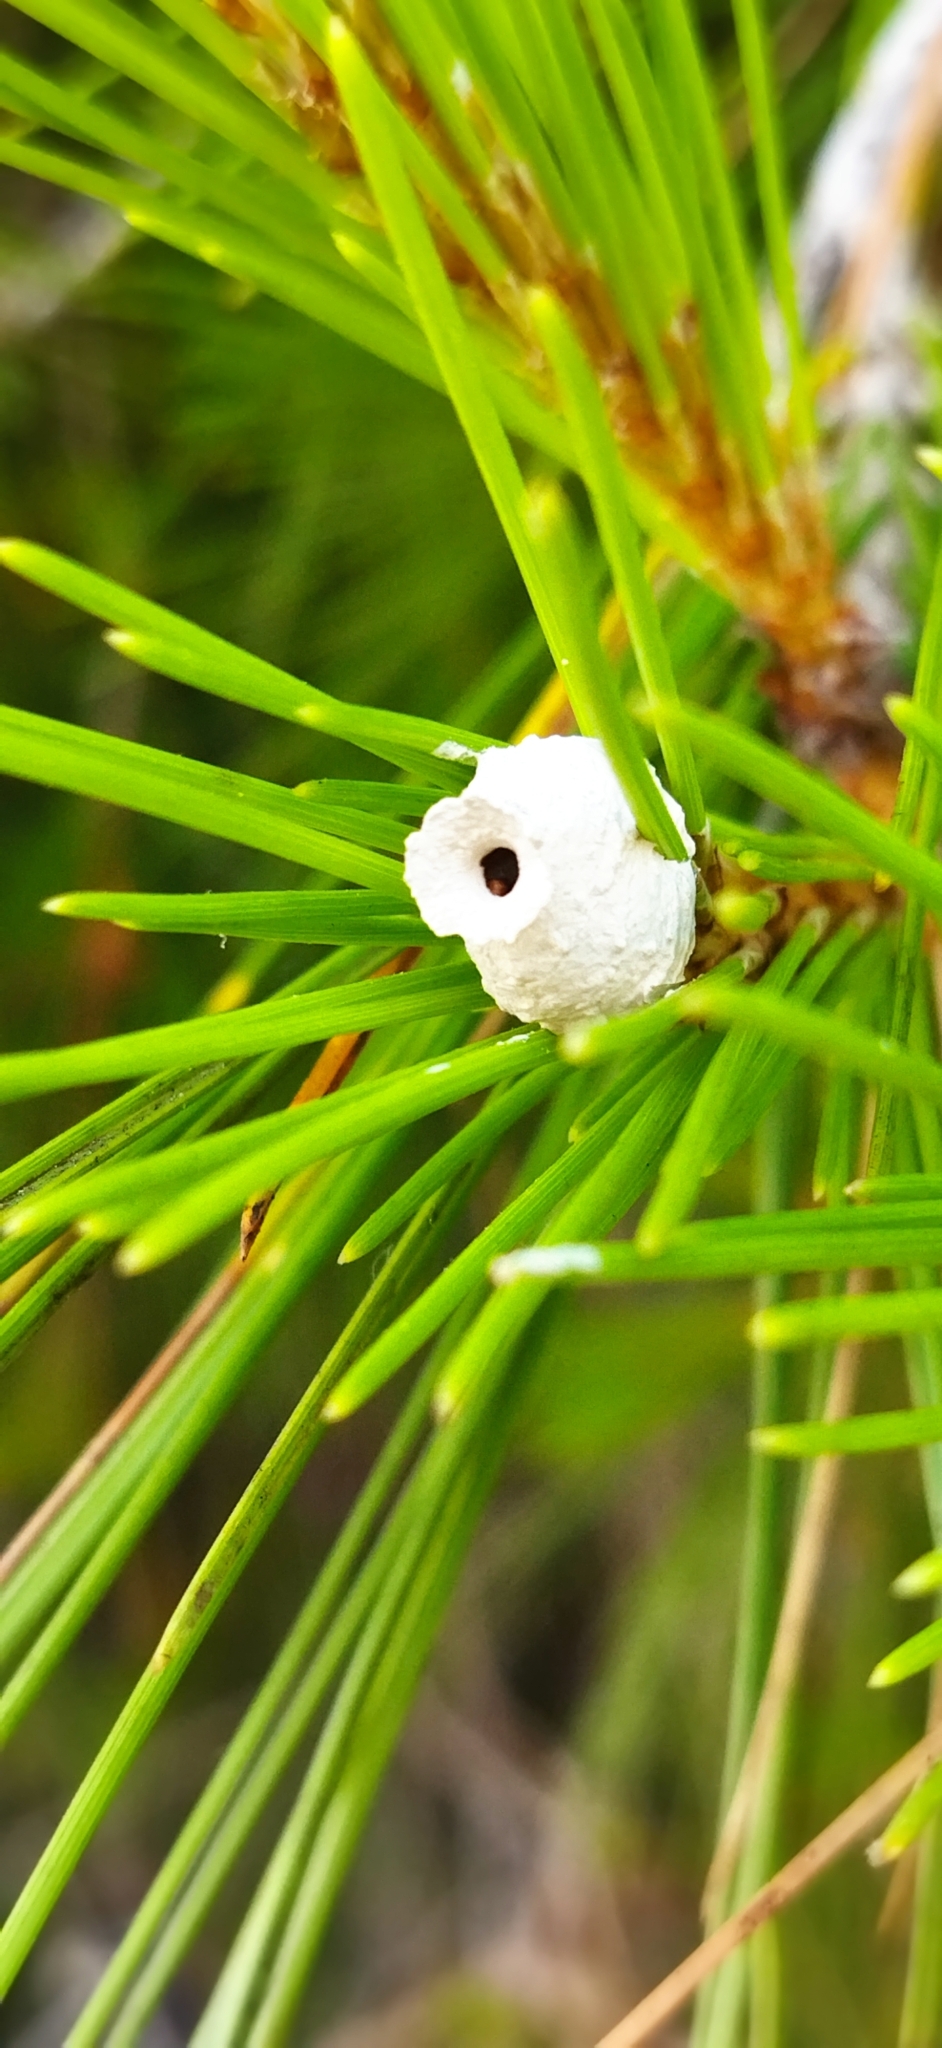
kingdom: Animalia
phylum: Arthropoda
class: Insecta
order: Hymenoptera
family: Vespidae
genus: Eumenes
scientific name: Eumenes
